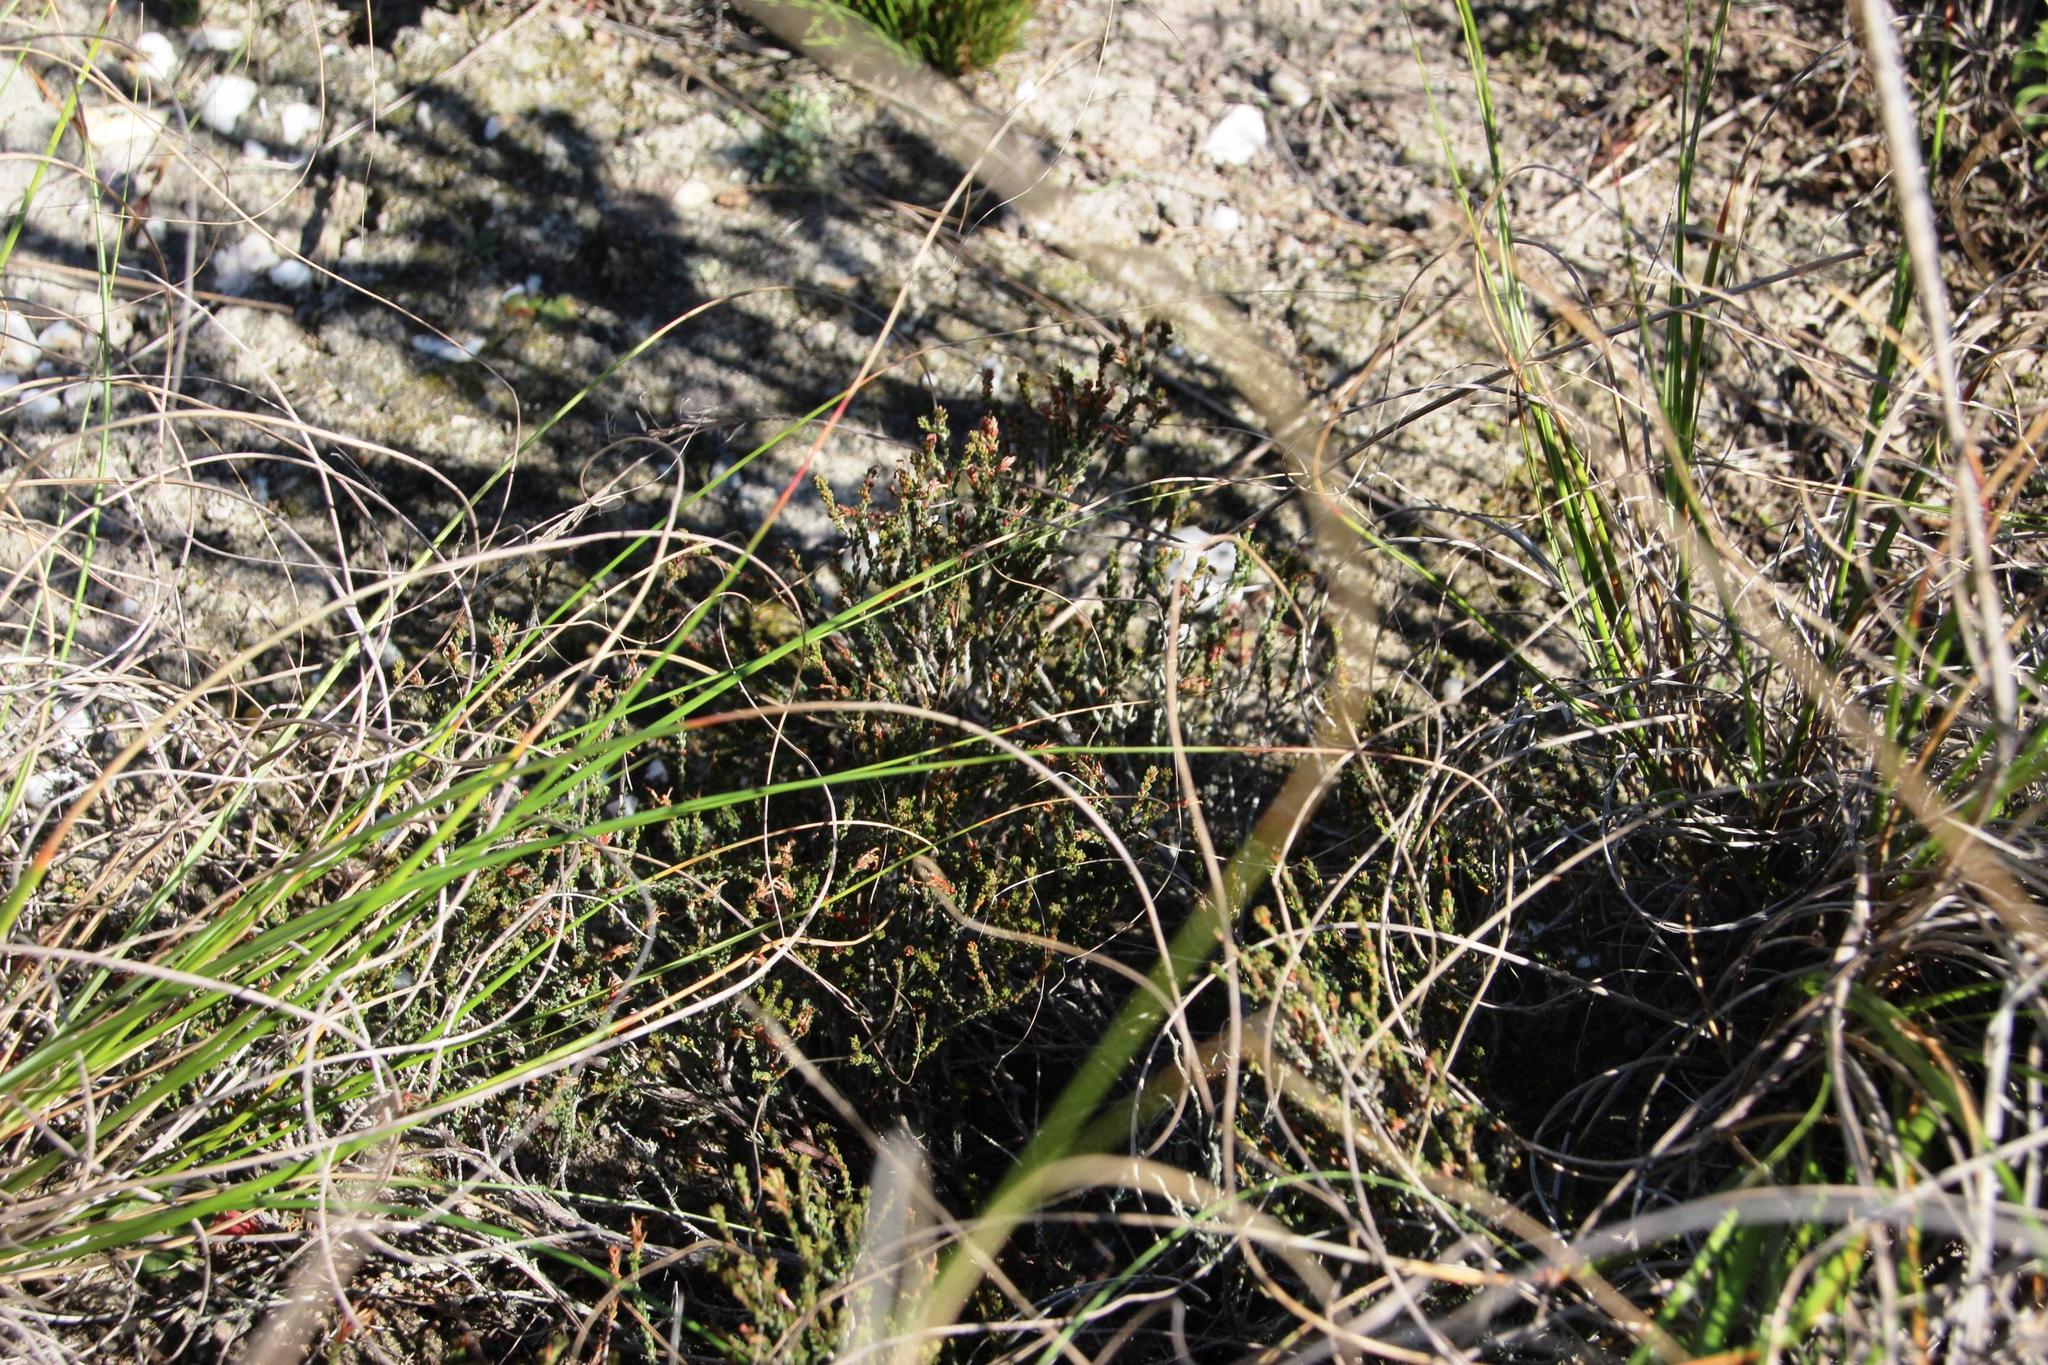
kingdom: Plantae
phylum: Tracheophyta
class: Liliopsida
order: Poales
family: Cyperaceae
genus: Ficinia
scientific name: Ficinia overbergensis
